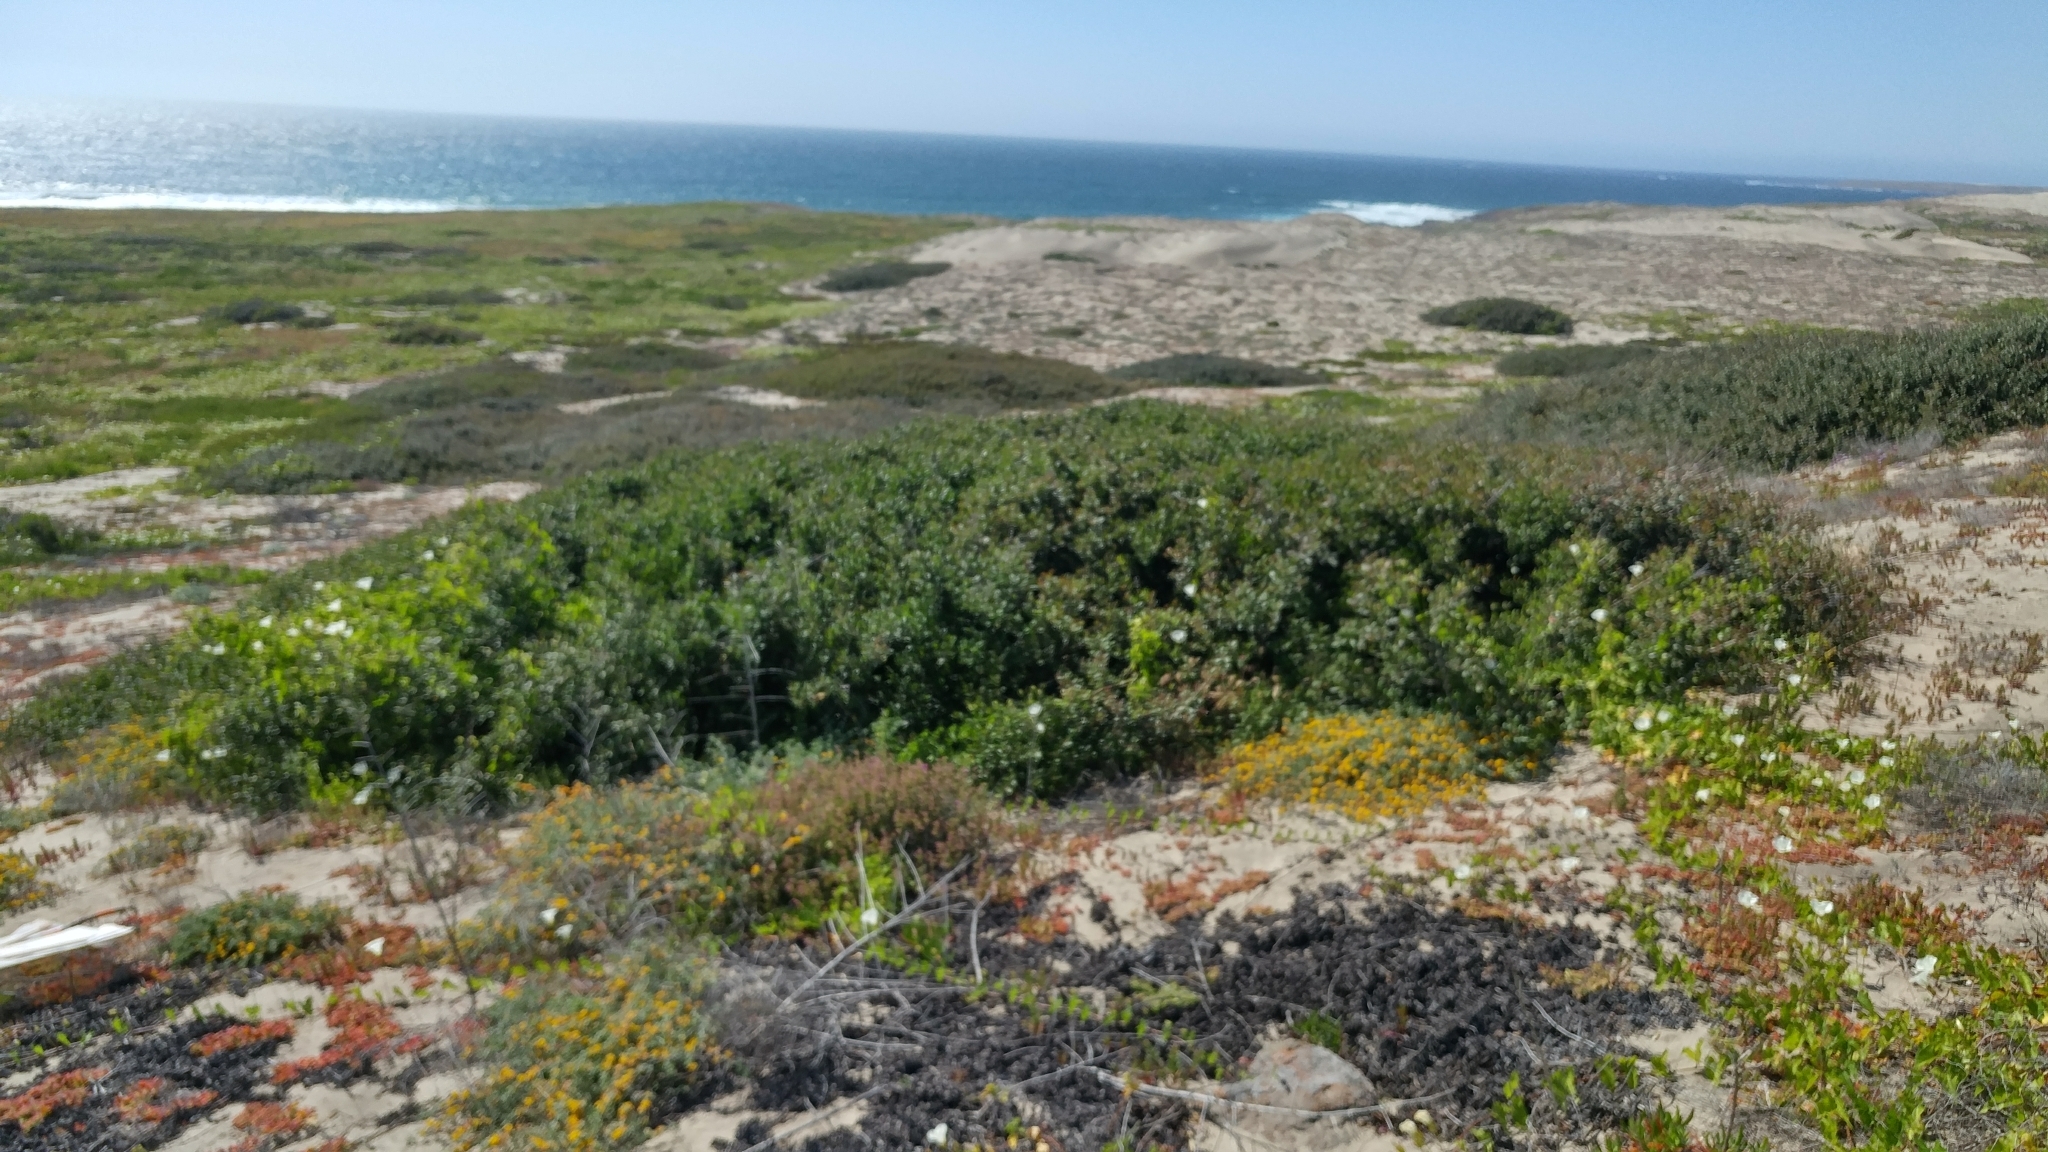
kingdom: Plantae
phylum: Tracheophyta
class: Magnoliopsida
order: Sapindales
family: Anacardiaceae
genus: Rhus
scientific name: Rhus integrifolia
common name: Lemonade sumac
